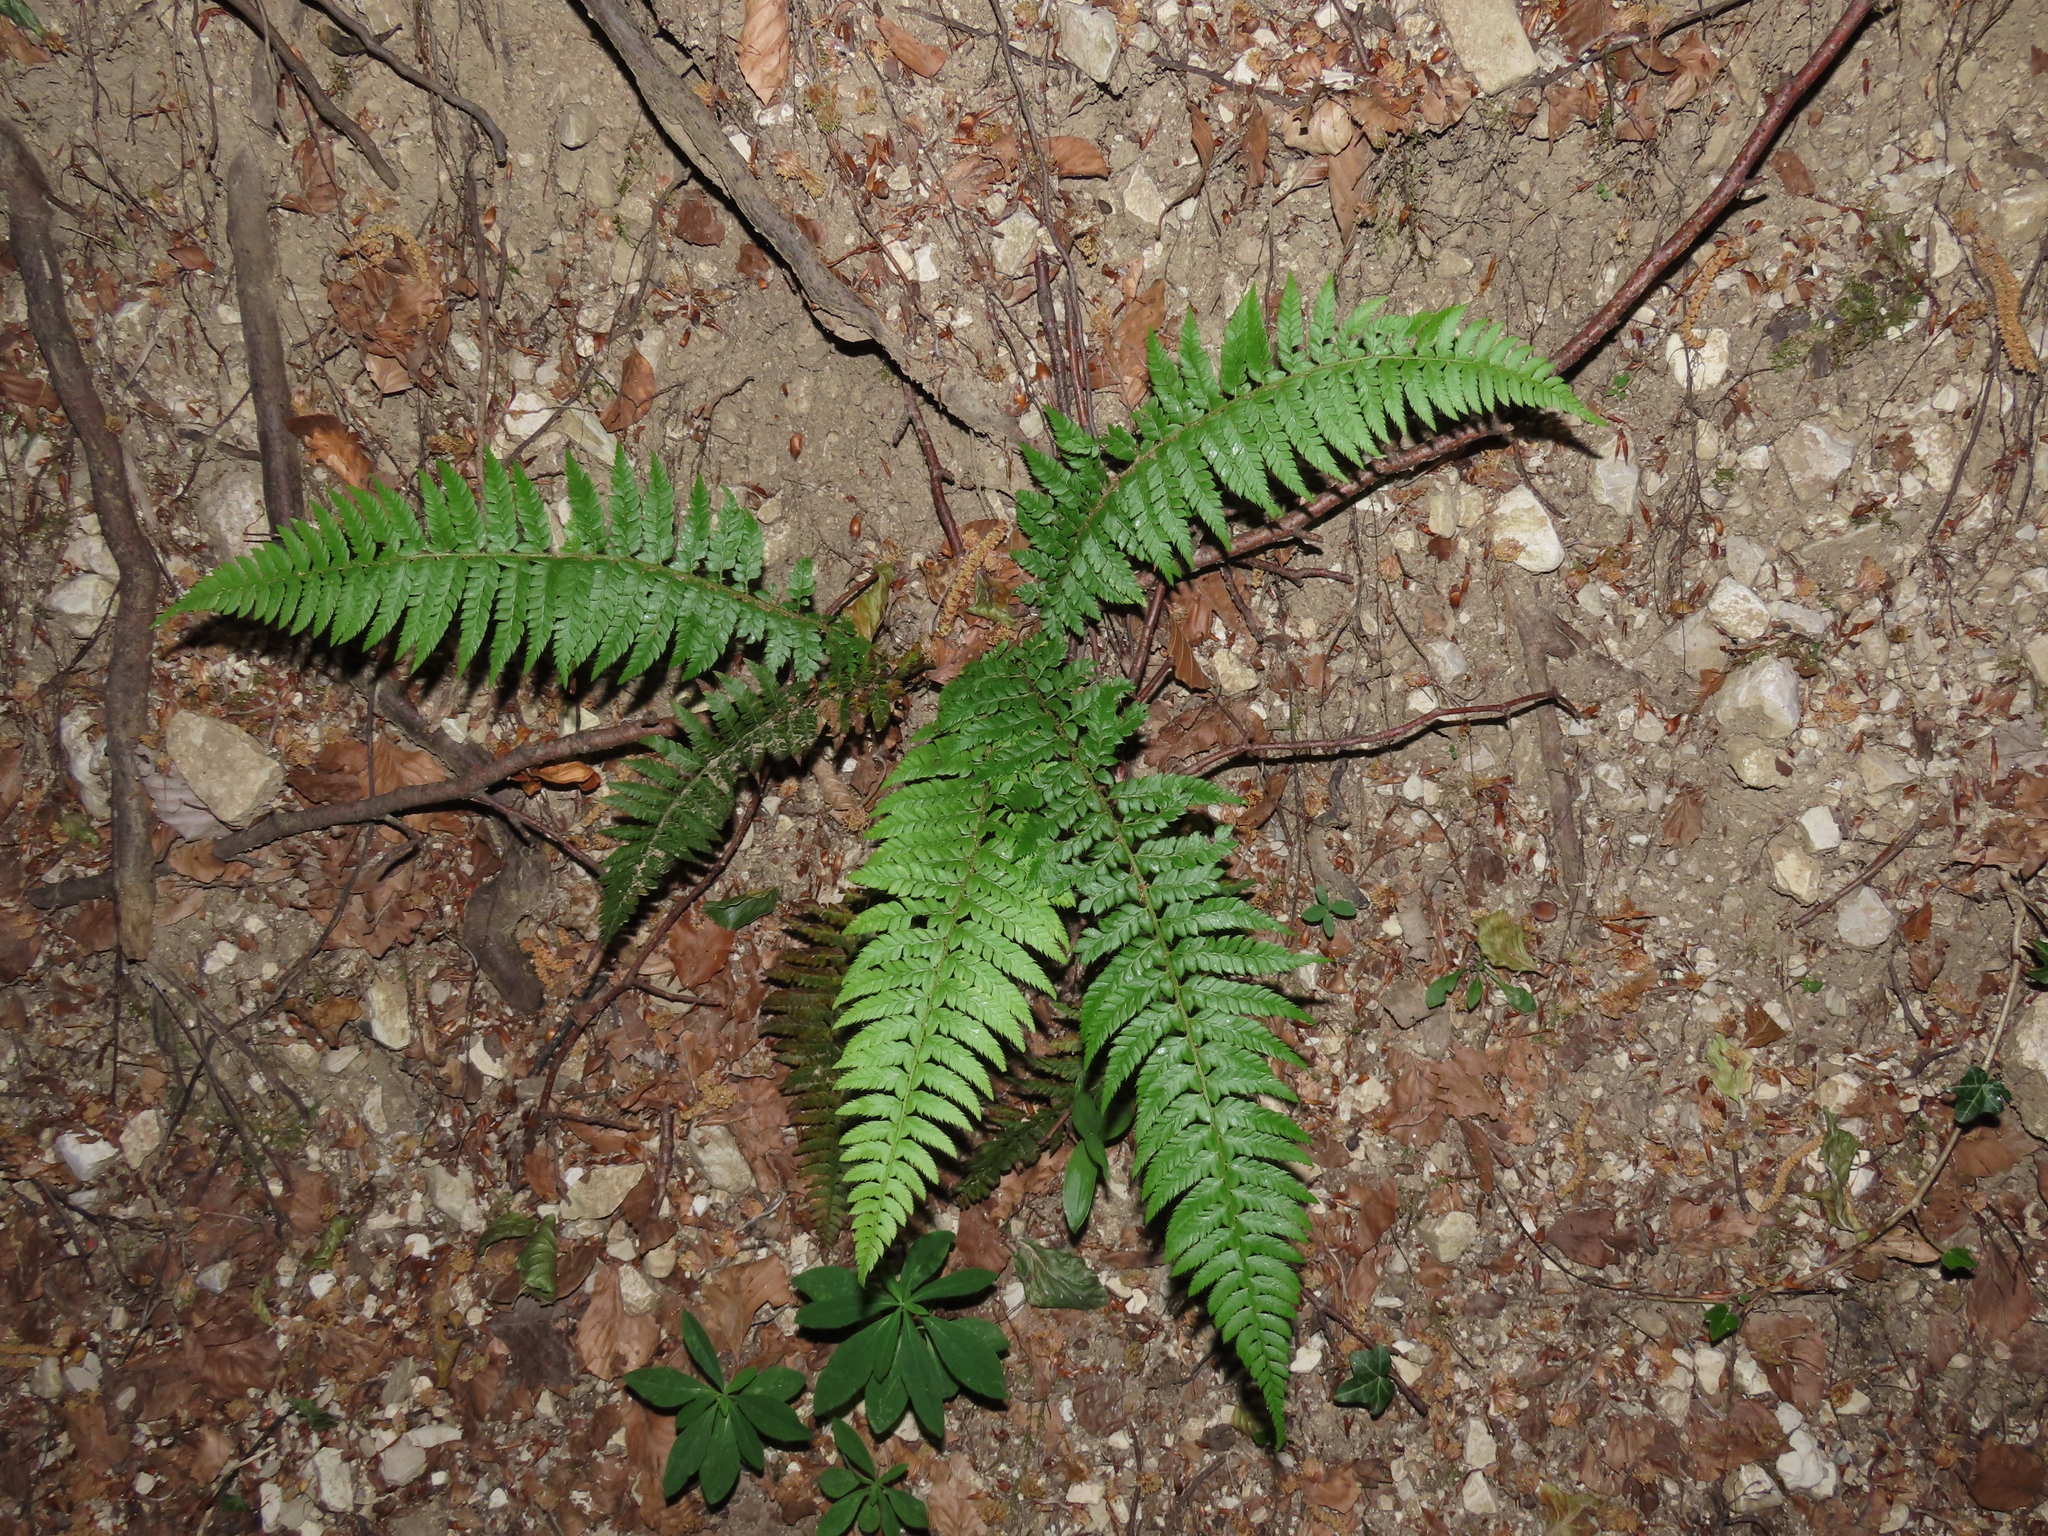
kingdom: Plantae
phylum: Tracheophyta
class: Polypodiopsida
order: Polypodiales
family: Dryopteridaceae
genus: Polystichum
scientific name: Polystichum aculeatum
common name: Hard shield-fern
